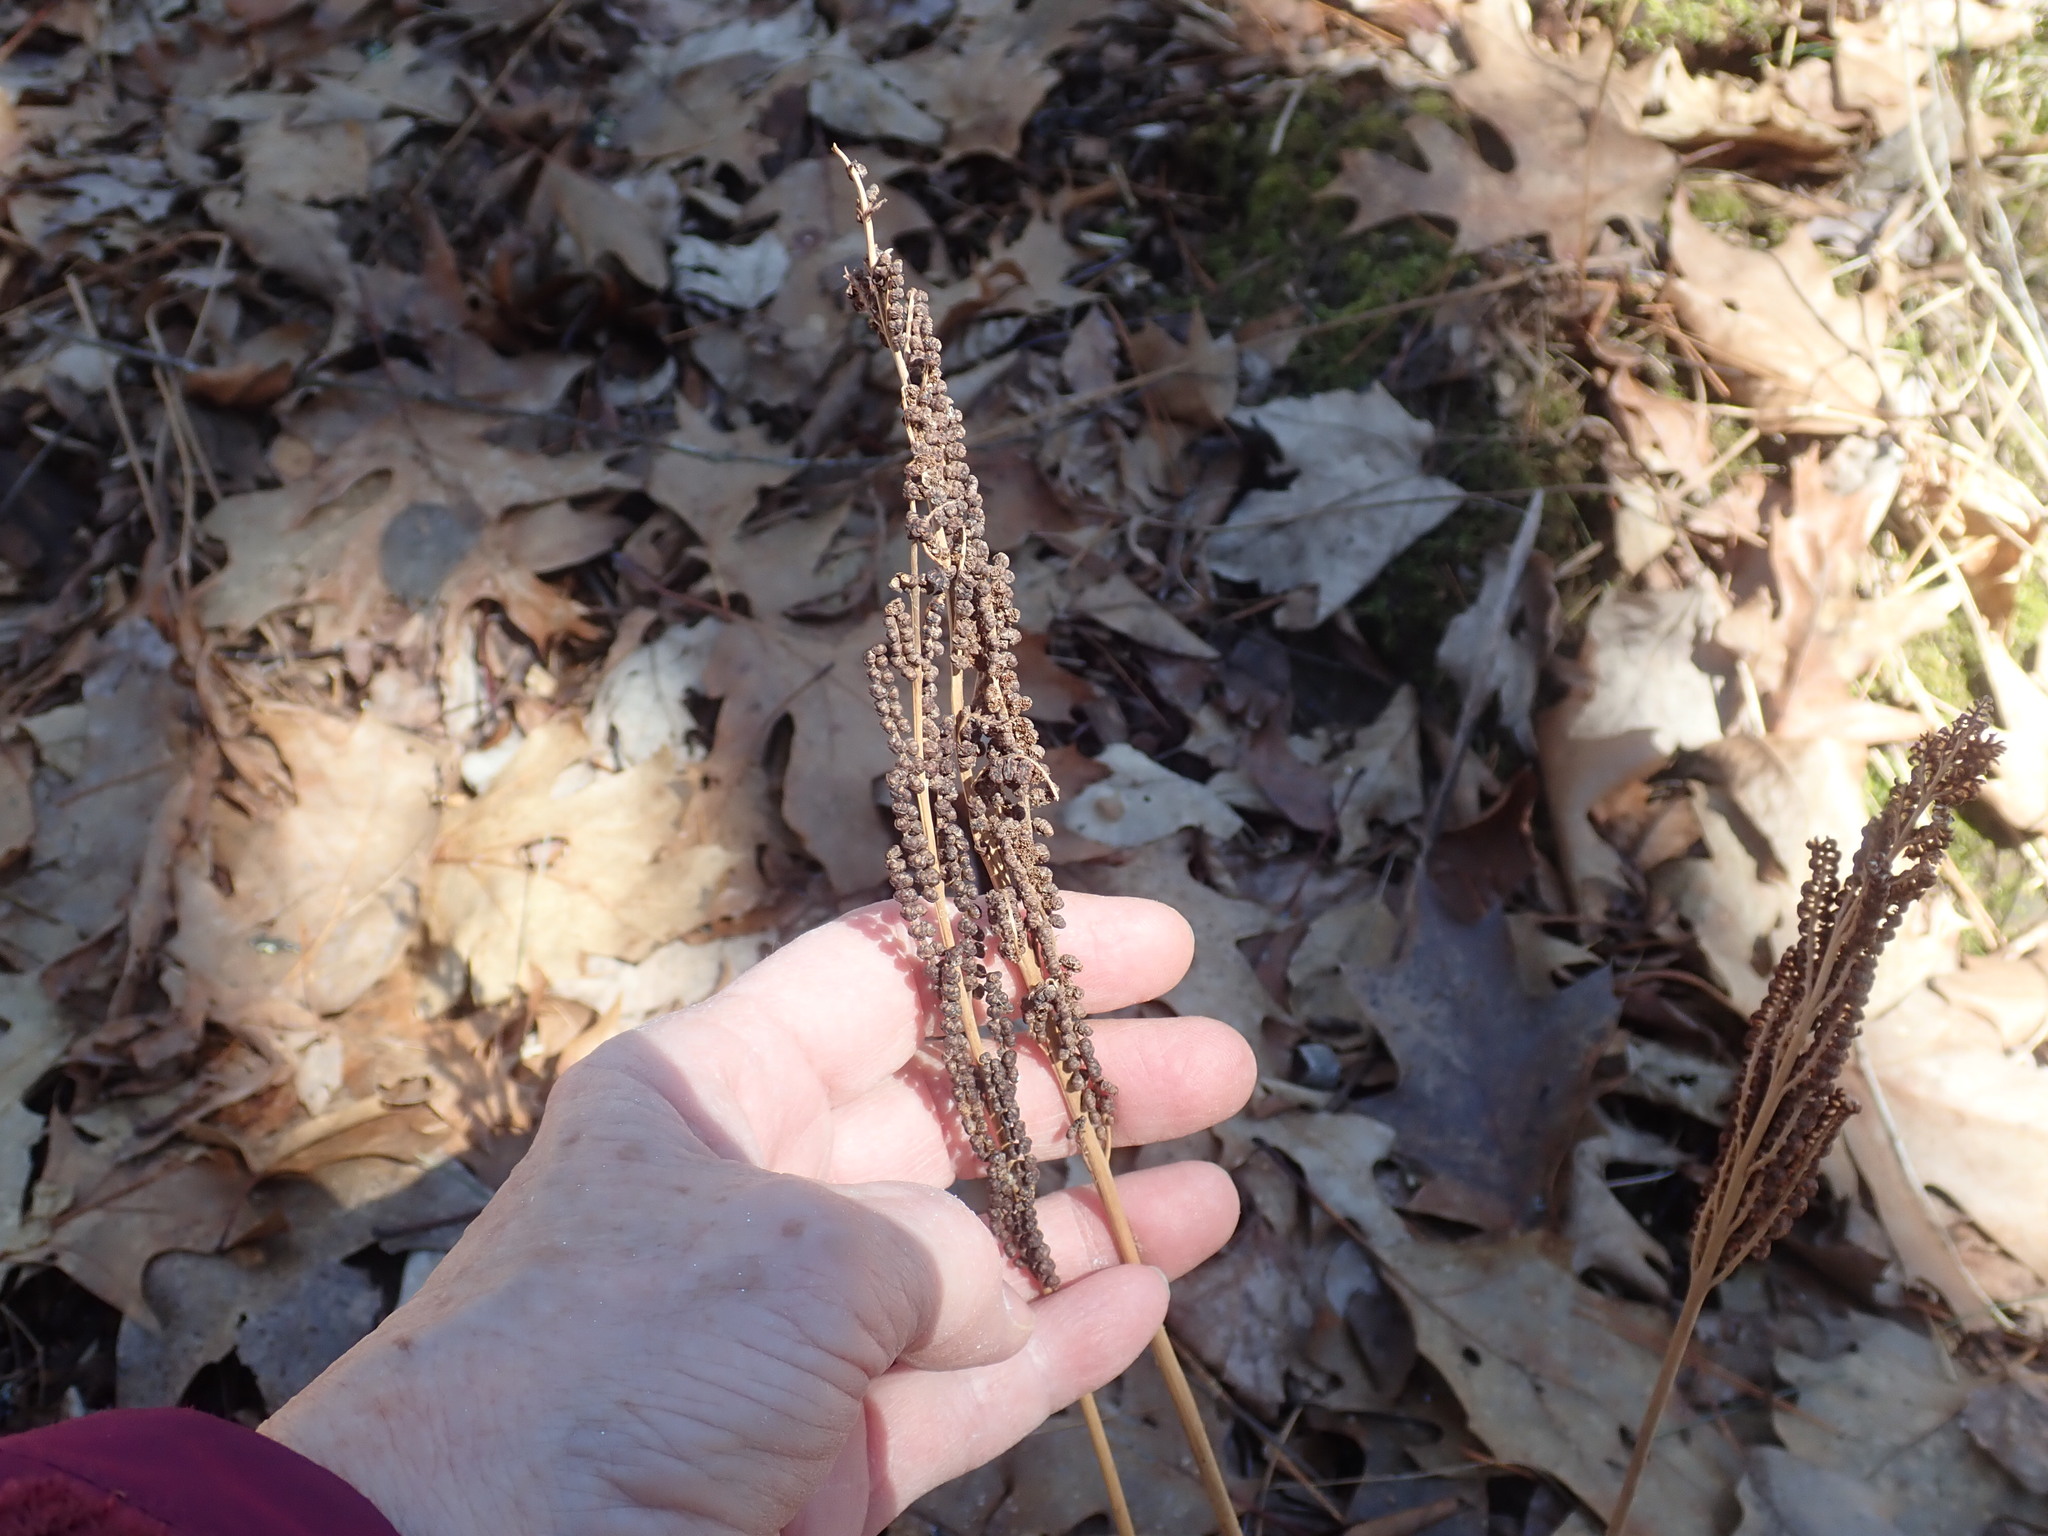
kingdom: Plantae
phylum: Tracheophyta
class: Polypodiopsida
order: Polypodiales
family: Onocleaceae
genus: Onoclea
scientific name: Onoclea sensibilis
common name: Sensitive fern
